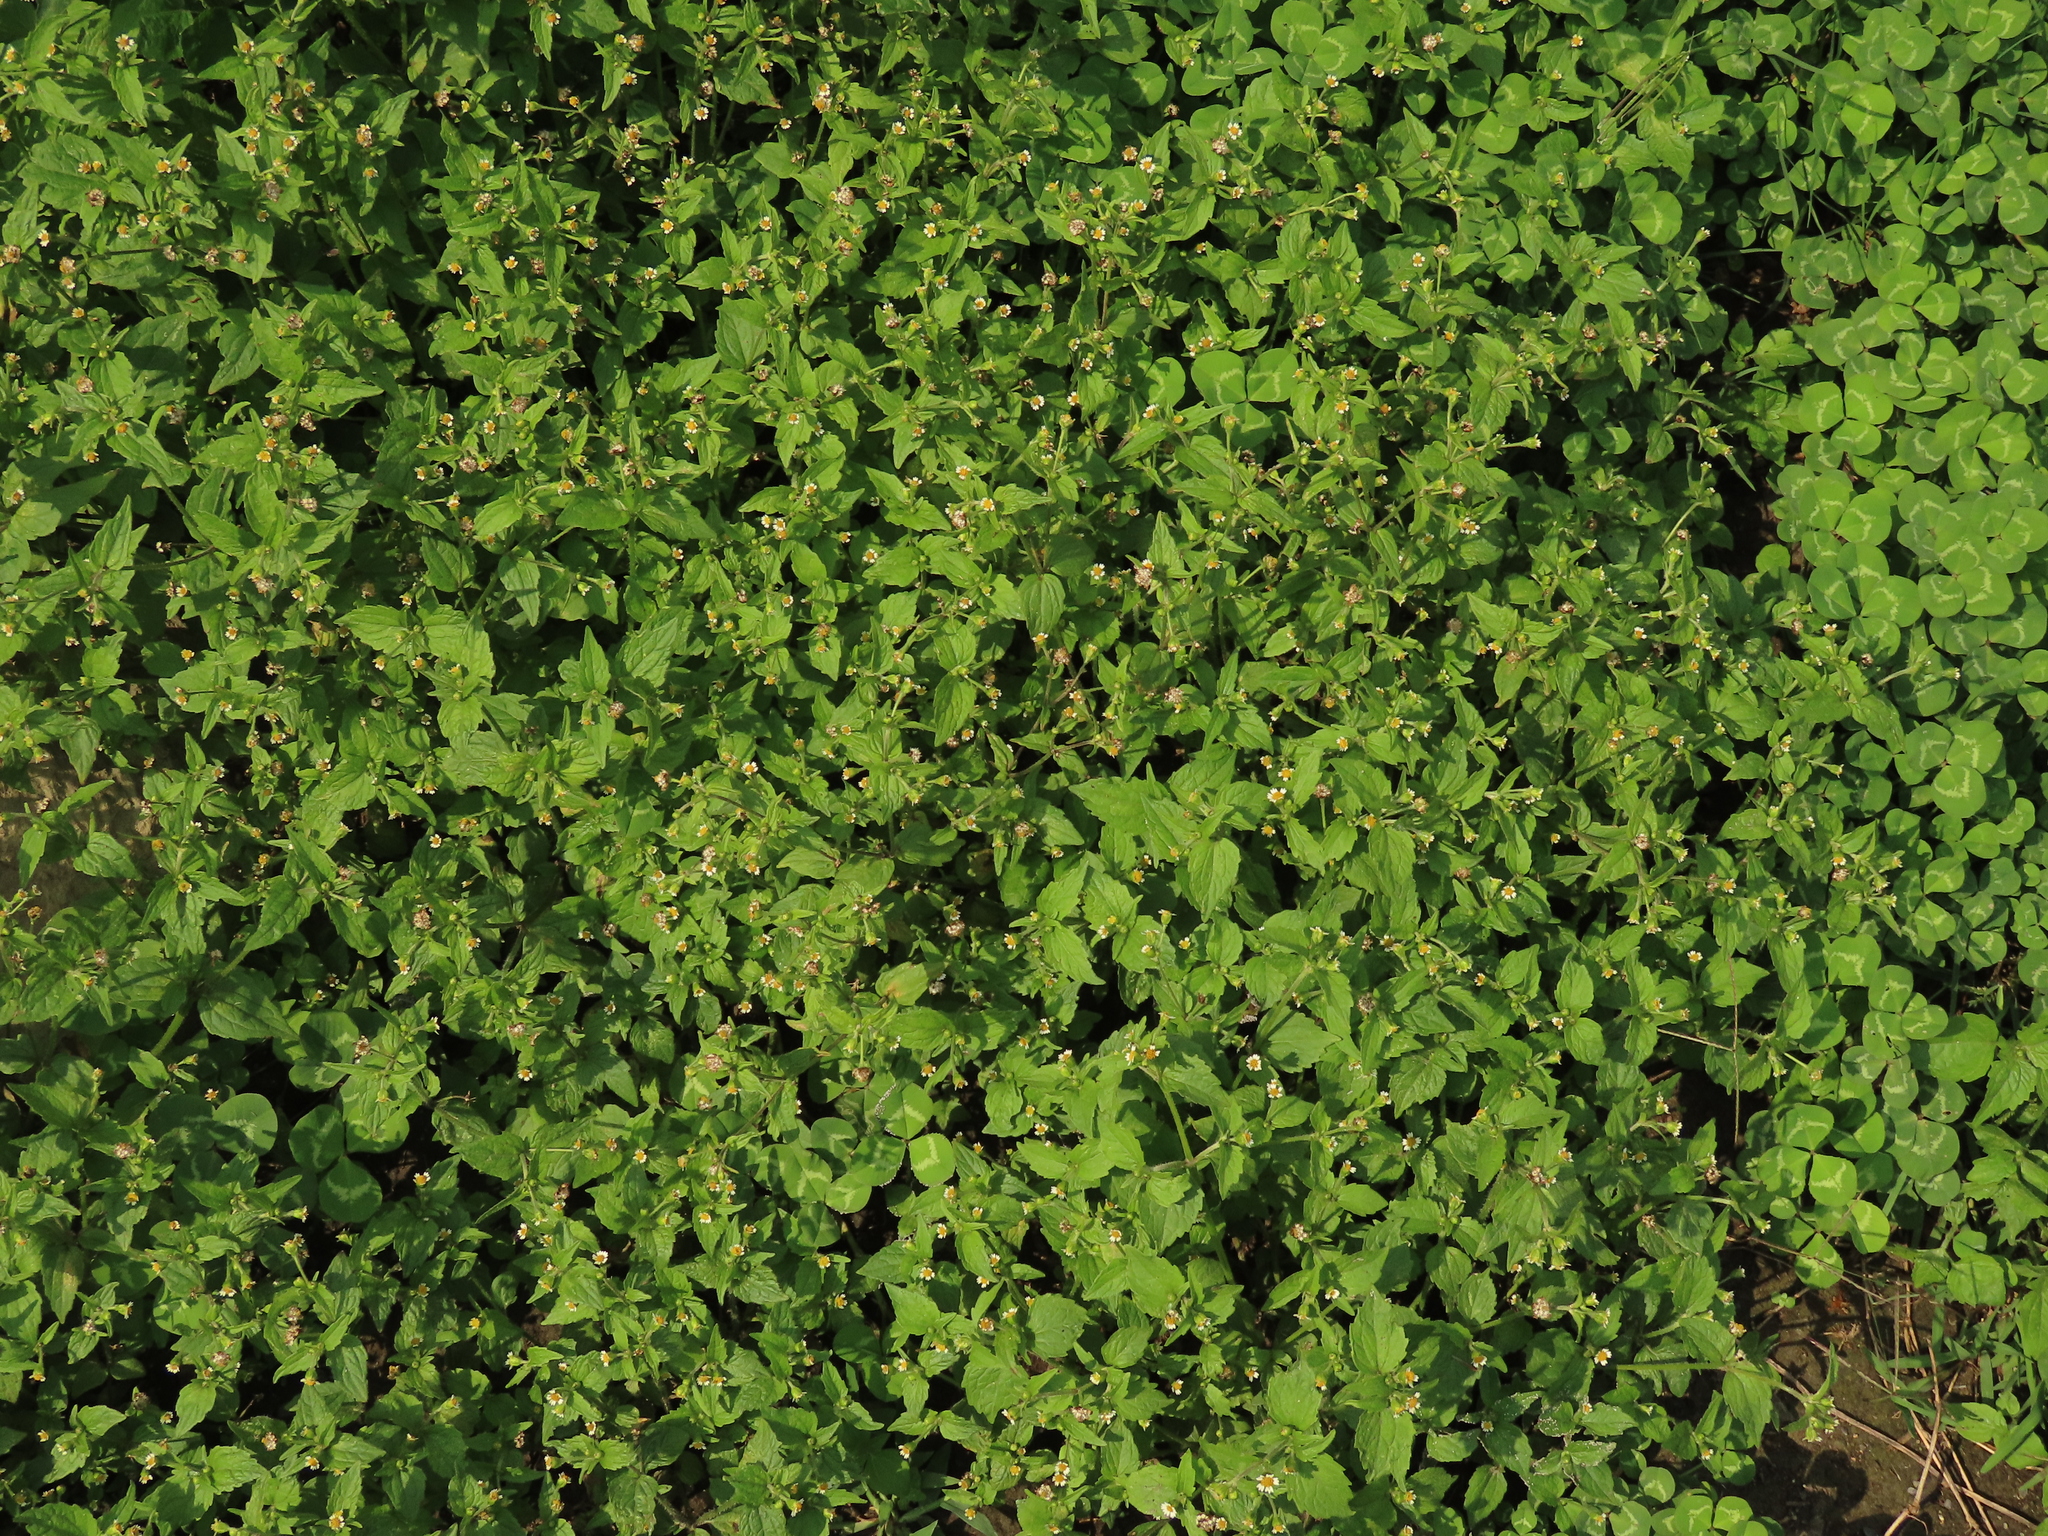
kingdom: Plantae
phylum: Tracheophyta
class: Magnoliopsida
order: Asterales
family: Asteraceae
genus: Galinsoga
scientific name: Galinsoga quadriradiata
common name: Shaggy soldier
